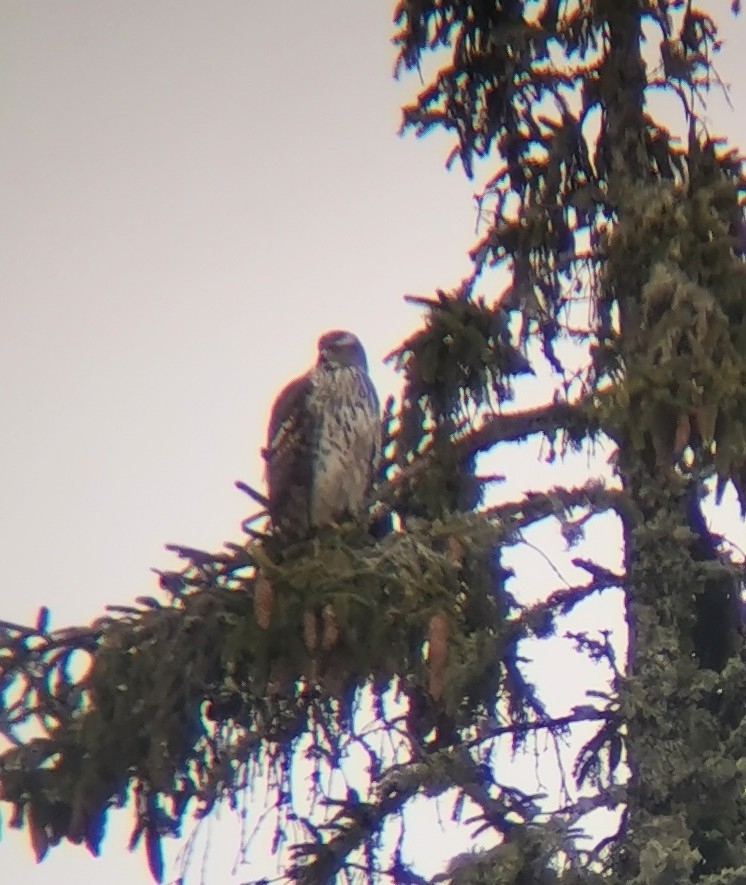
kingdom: Animalia
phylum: Chordata
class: Aves
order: Accipitriformes
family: Accipitridae
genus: Accipiter
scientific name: Accipiter gentilis
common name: Northern goshawk
